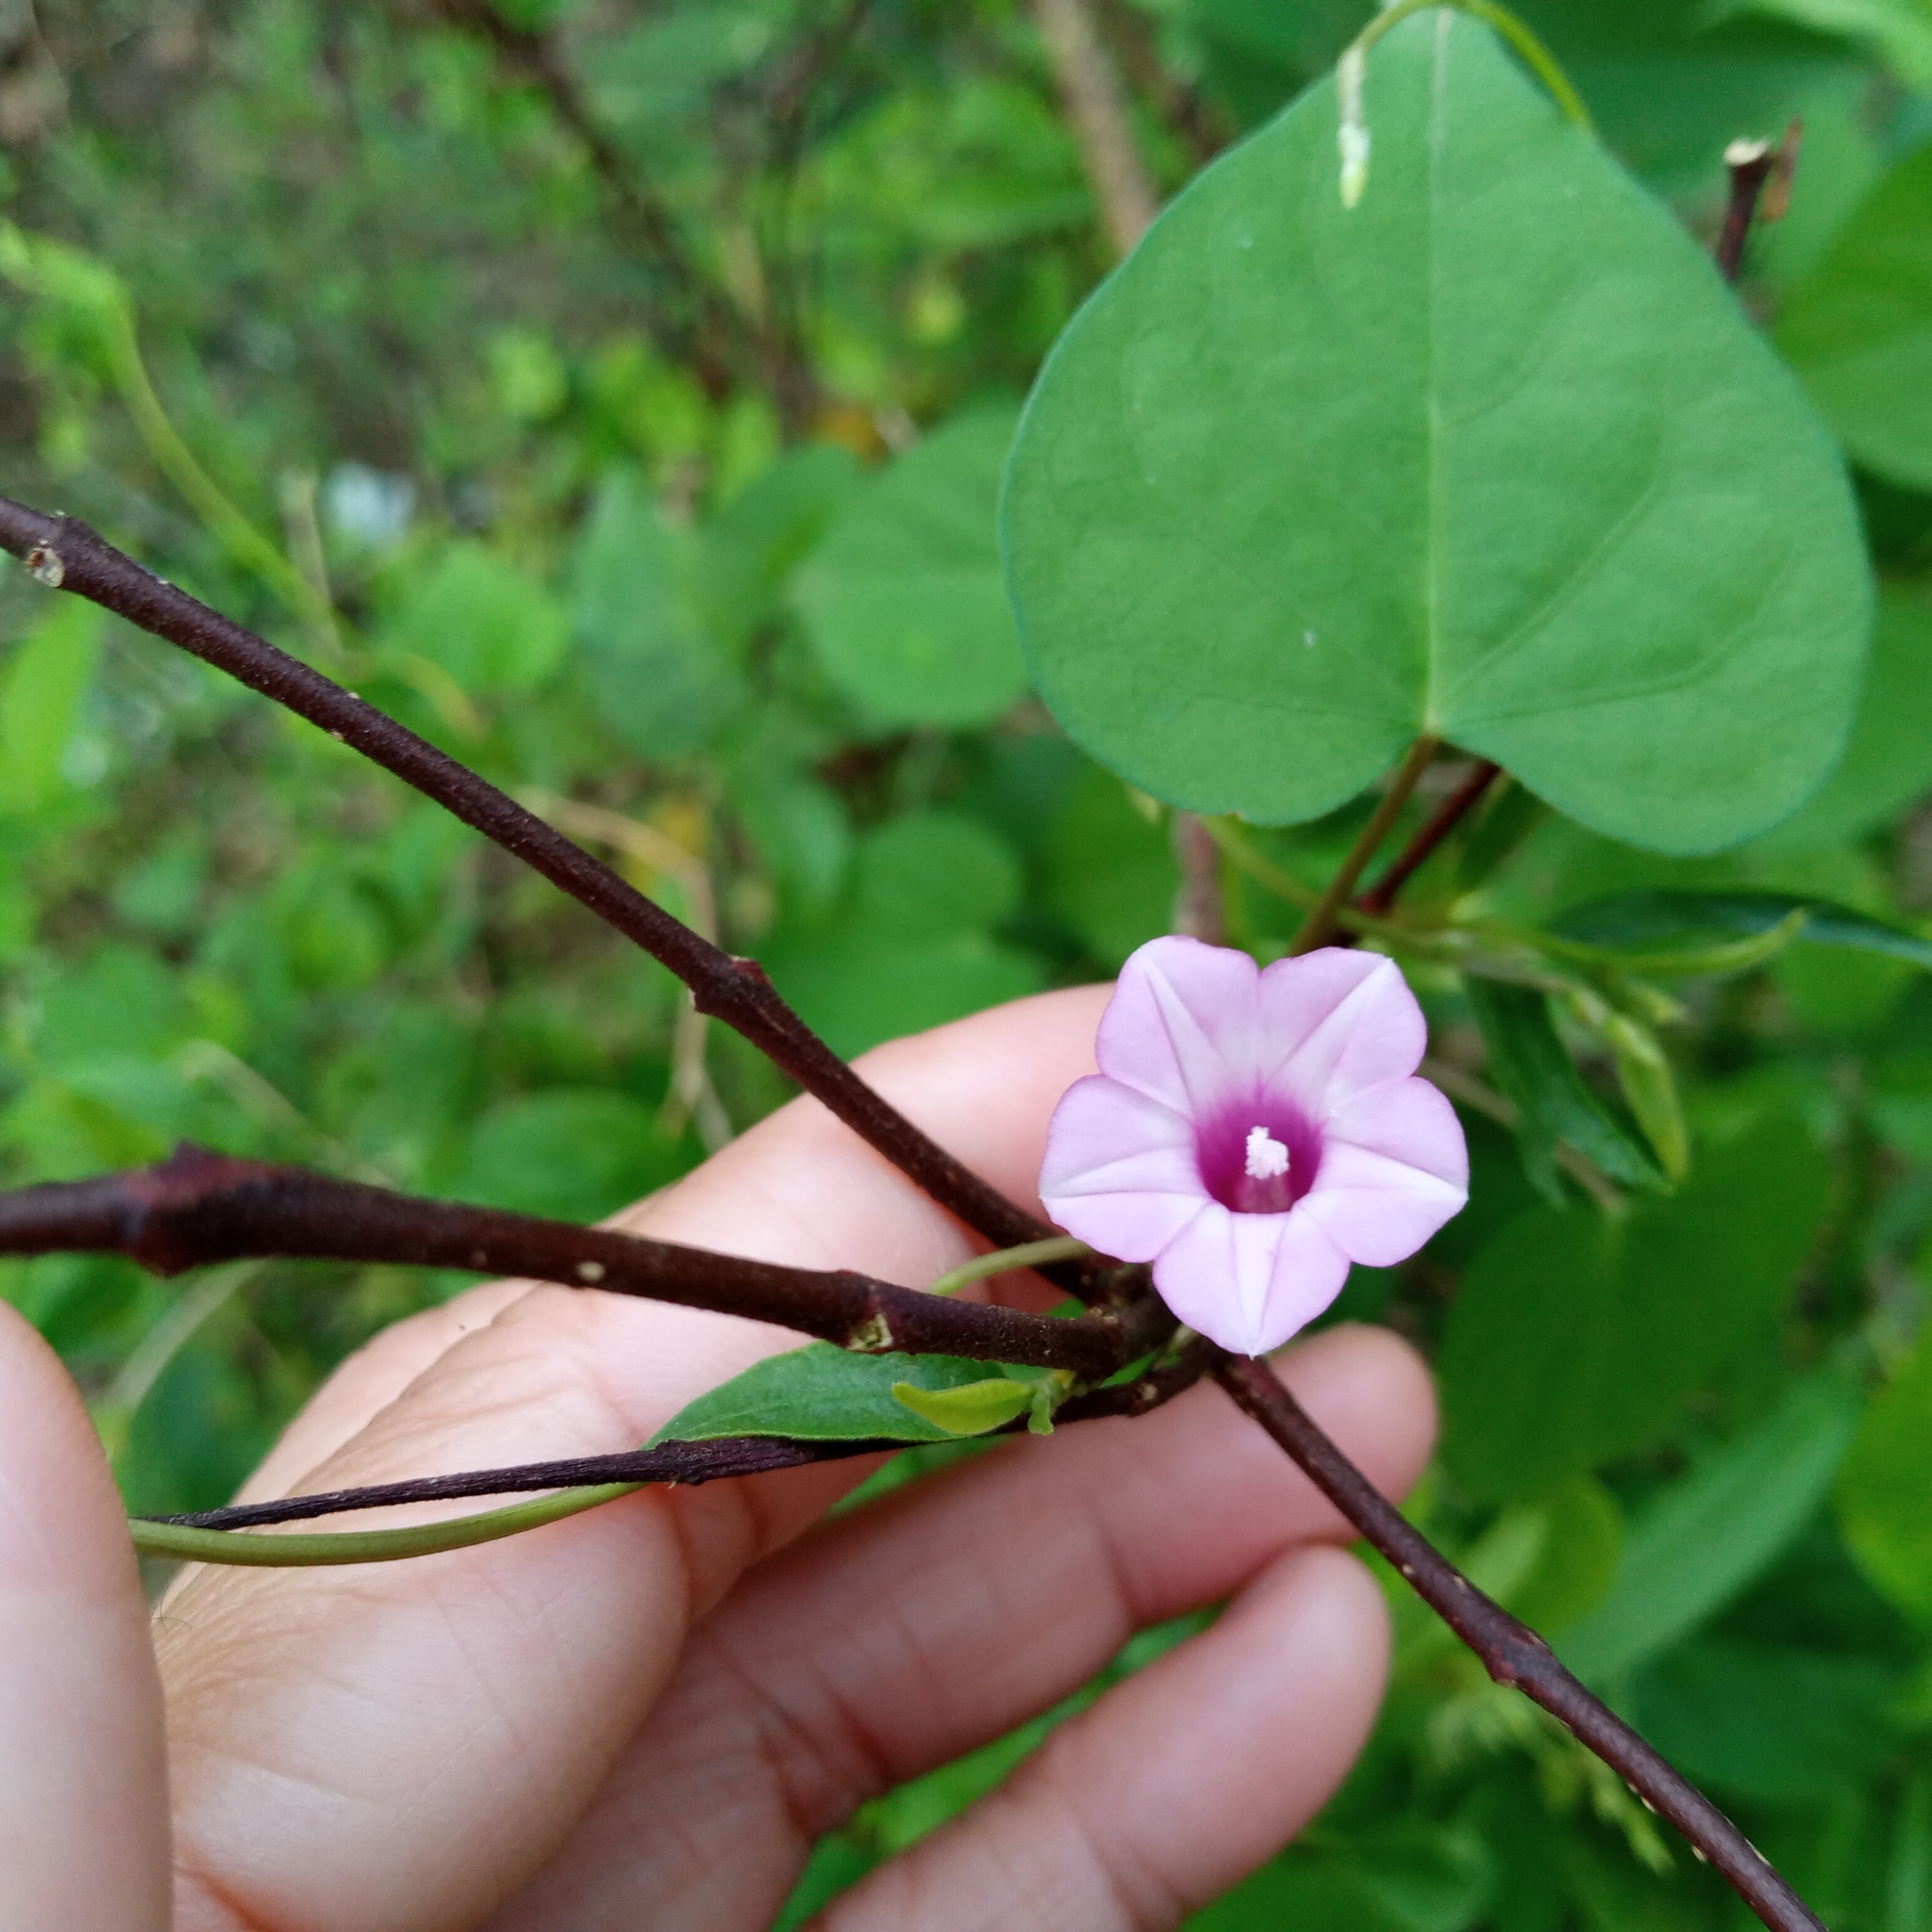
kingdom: Plantae
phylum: Tracheophyta
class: Magnoliopsida
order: Solanales
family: Convolvulaceae
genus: Ipomoea
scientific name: Ipomoea triloba
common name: Little-bell
